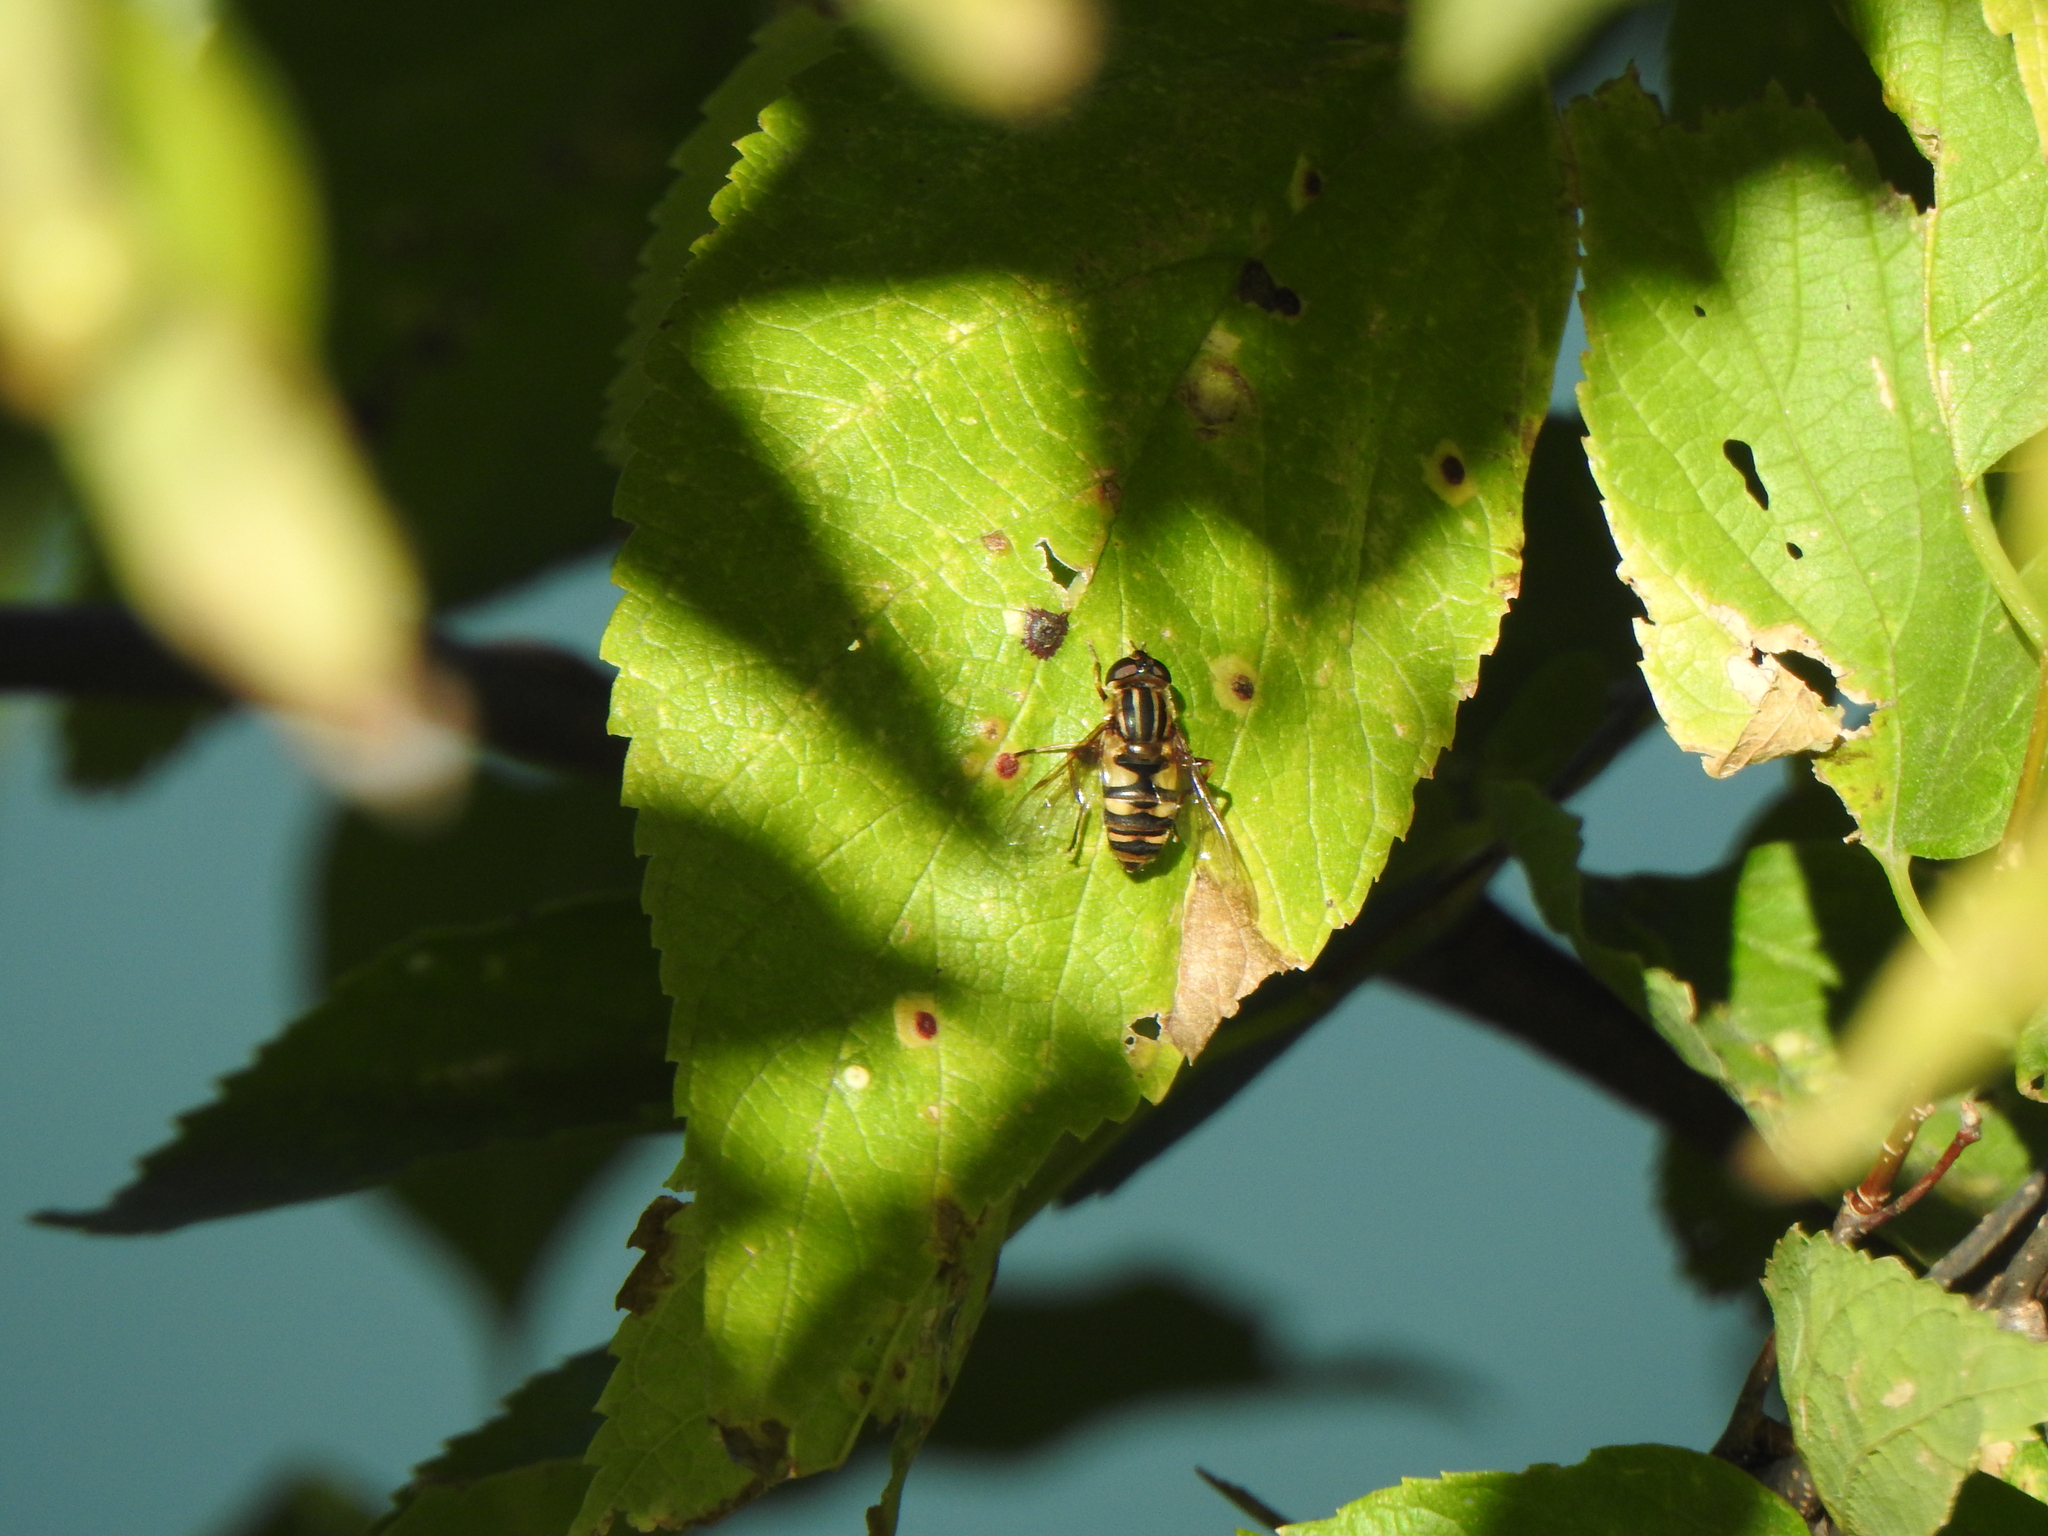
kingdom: Animalia
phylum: Arthropoda
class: Insecta
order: Diptera
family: Syrphidae
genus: Helophilus
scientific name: Helophilus fasciatus
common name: Narrow-headed marsh fly
